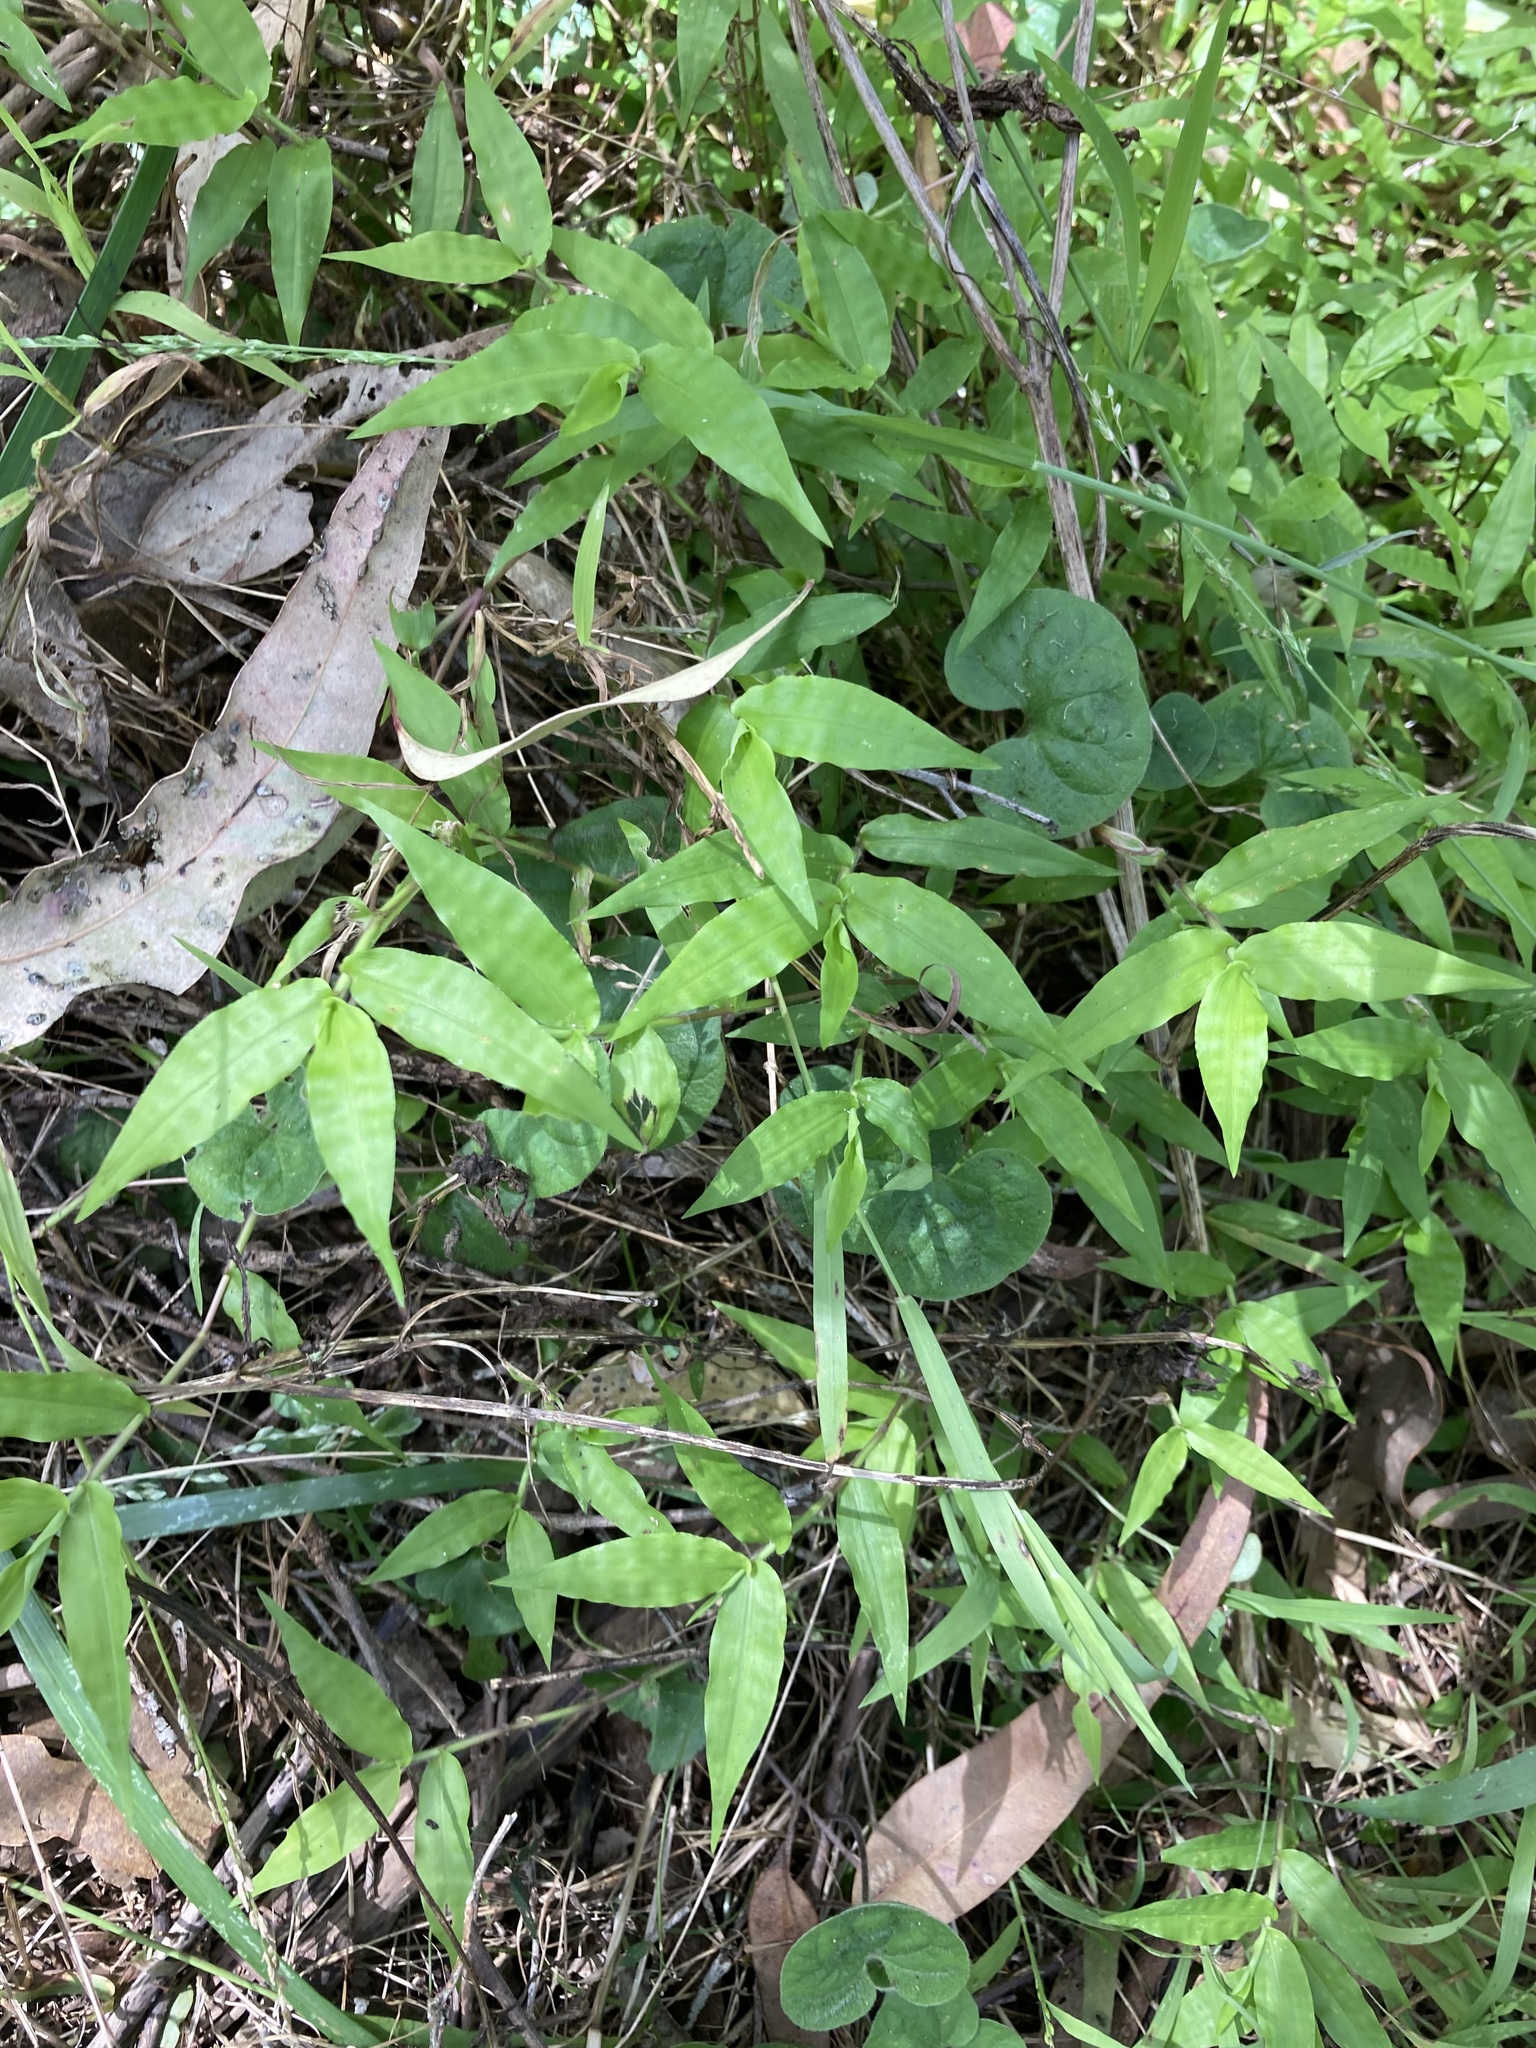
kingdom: Plantae
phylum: Tracheophyta
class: Liliopsida
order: Poales
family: Poaceae
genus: Oplismenus
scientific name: Oplismenus hirtellus
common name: Basketgrass
